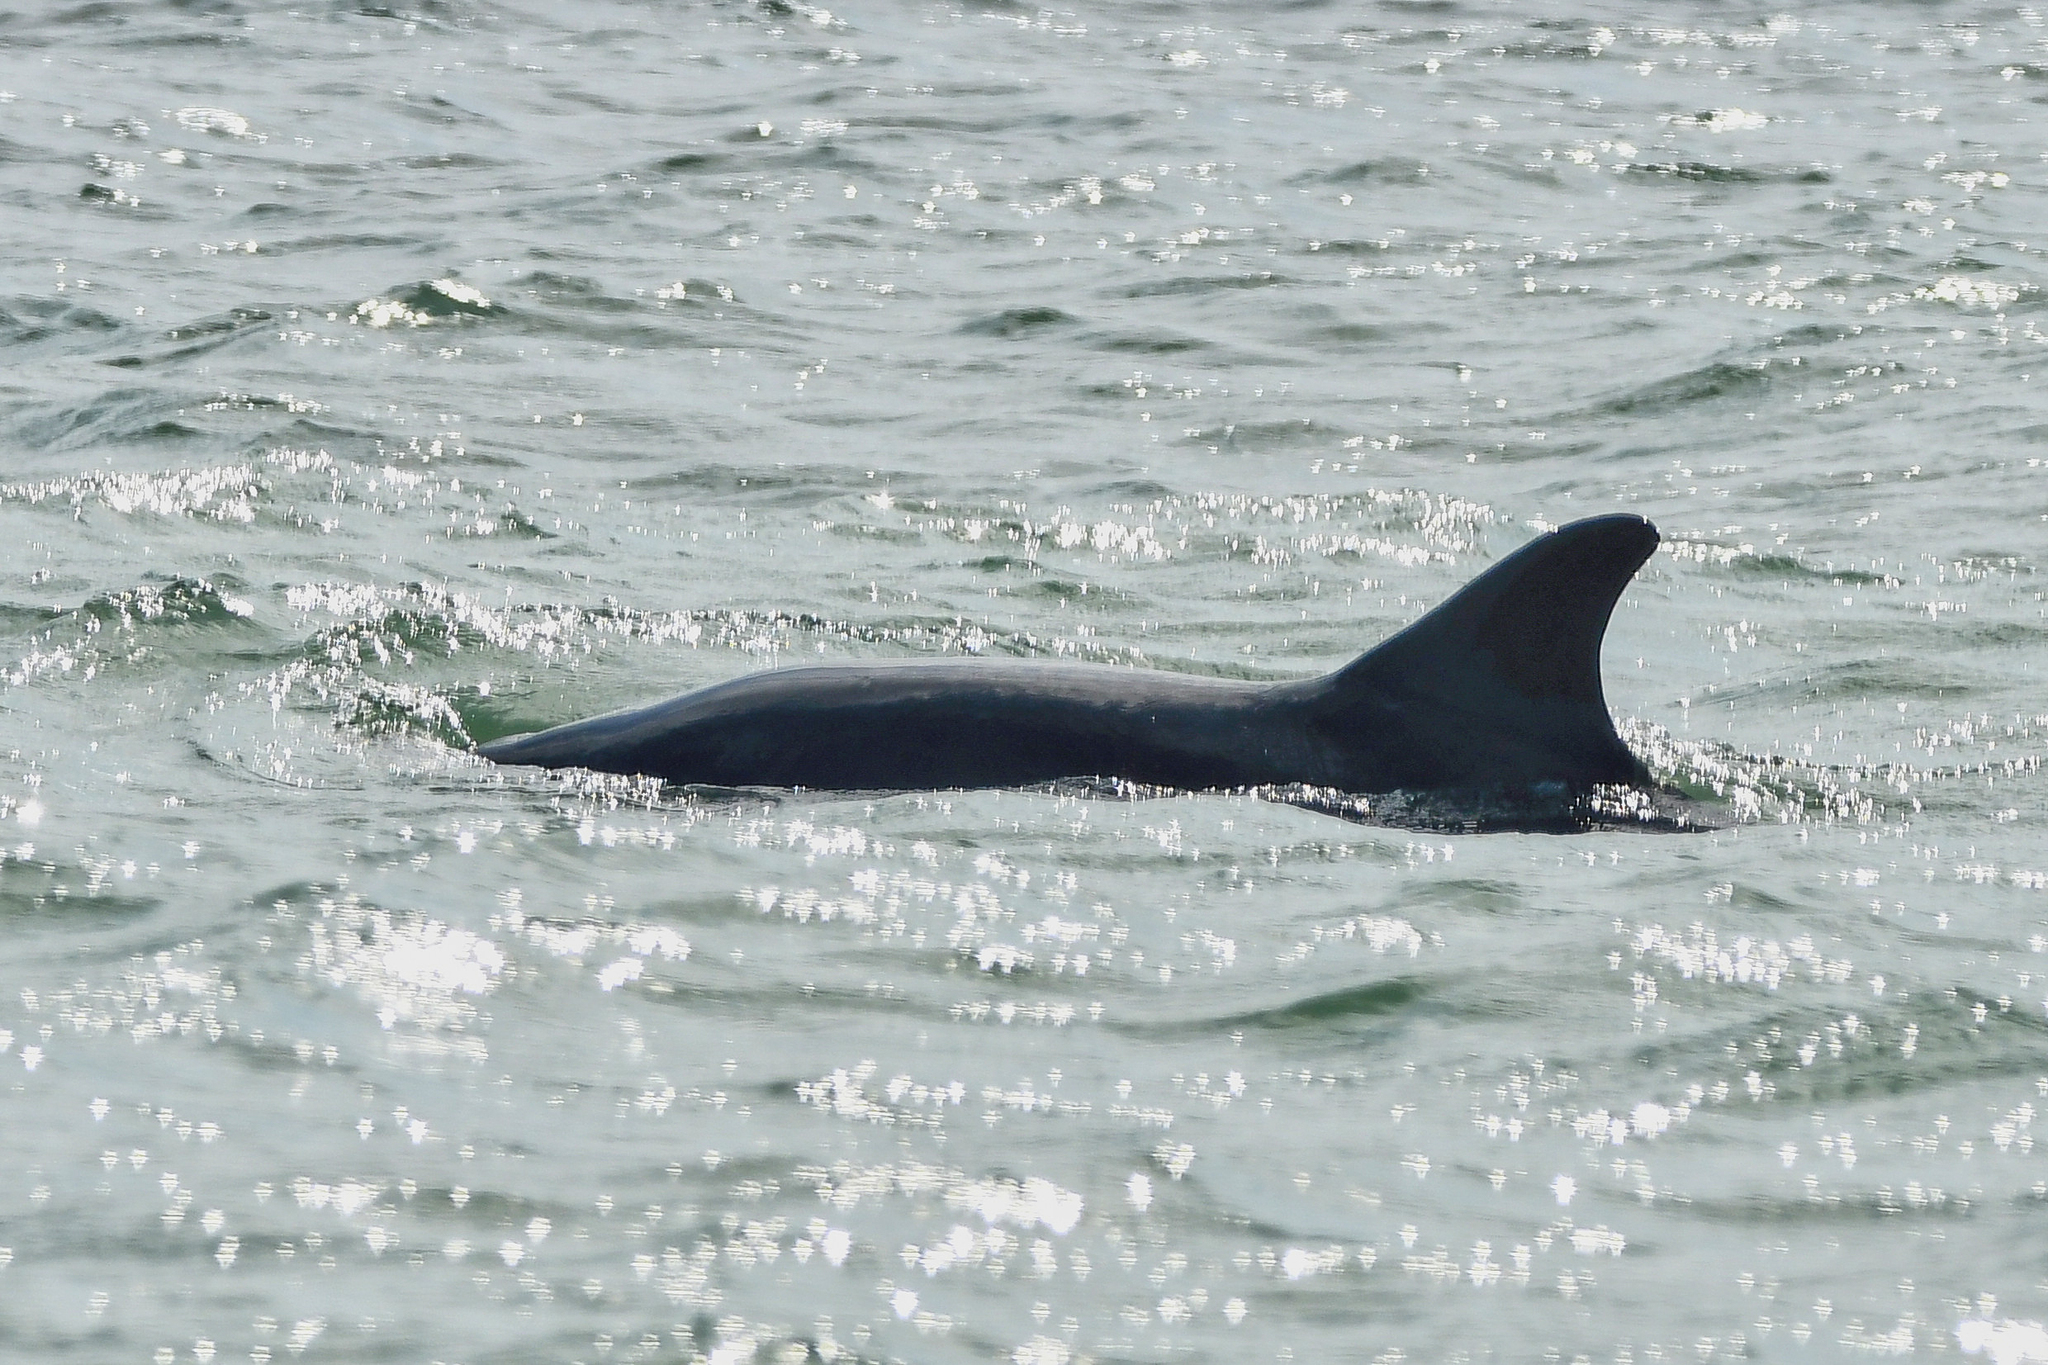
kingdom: Animalia
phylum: Chordata
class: Mammalia
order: Cetacea
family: Delphinidae
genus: Tursiops
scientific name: Tursiops truncatus
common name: Bottlenose dolphin
